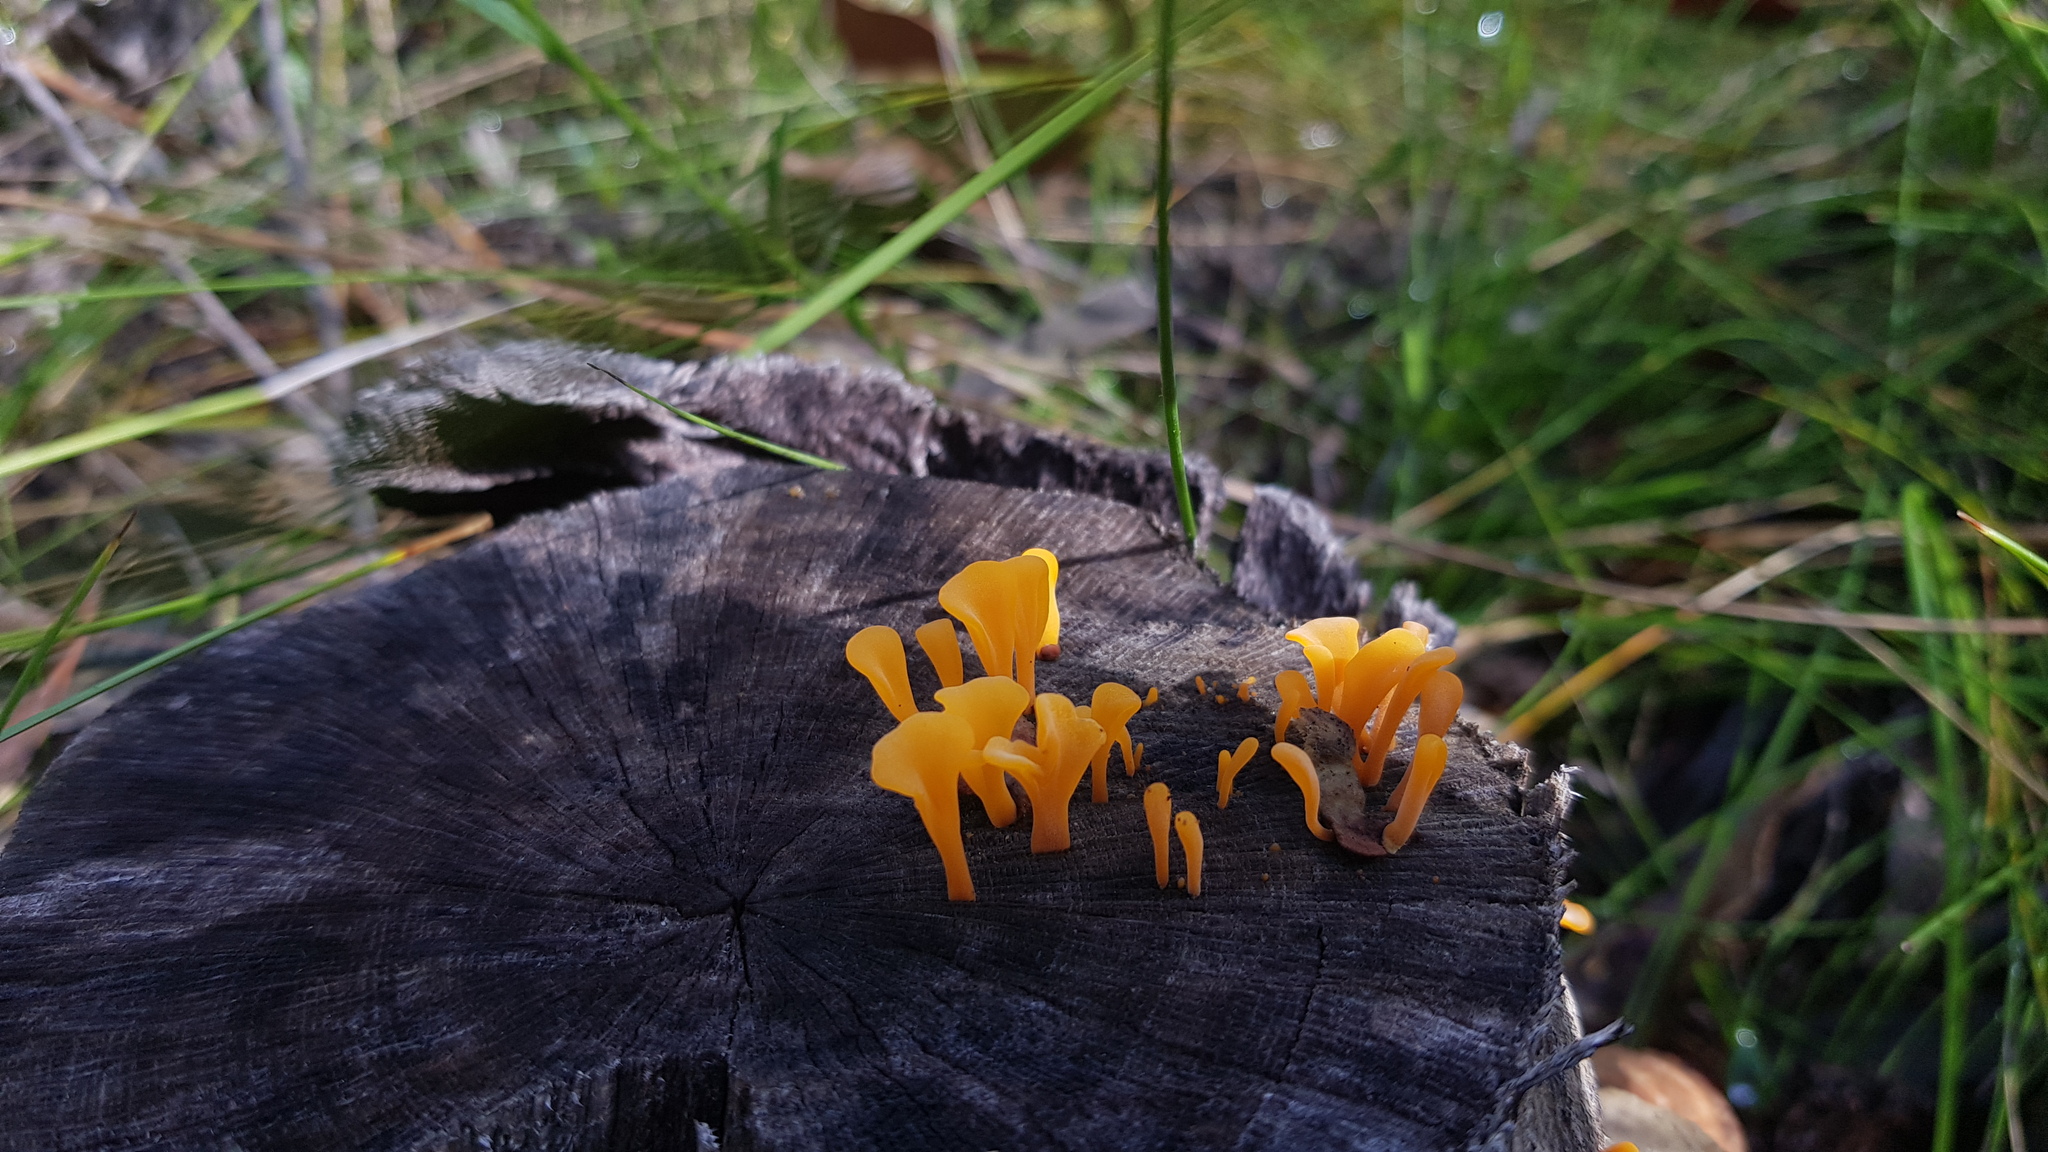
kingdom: Fungi
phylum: Basidiomycota
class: Dacrymycetes
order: Dacrymycetales
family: Dacrymycetaceae
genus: Dacrymyces
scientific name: Dacrymyces spathularius
